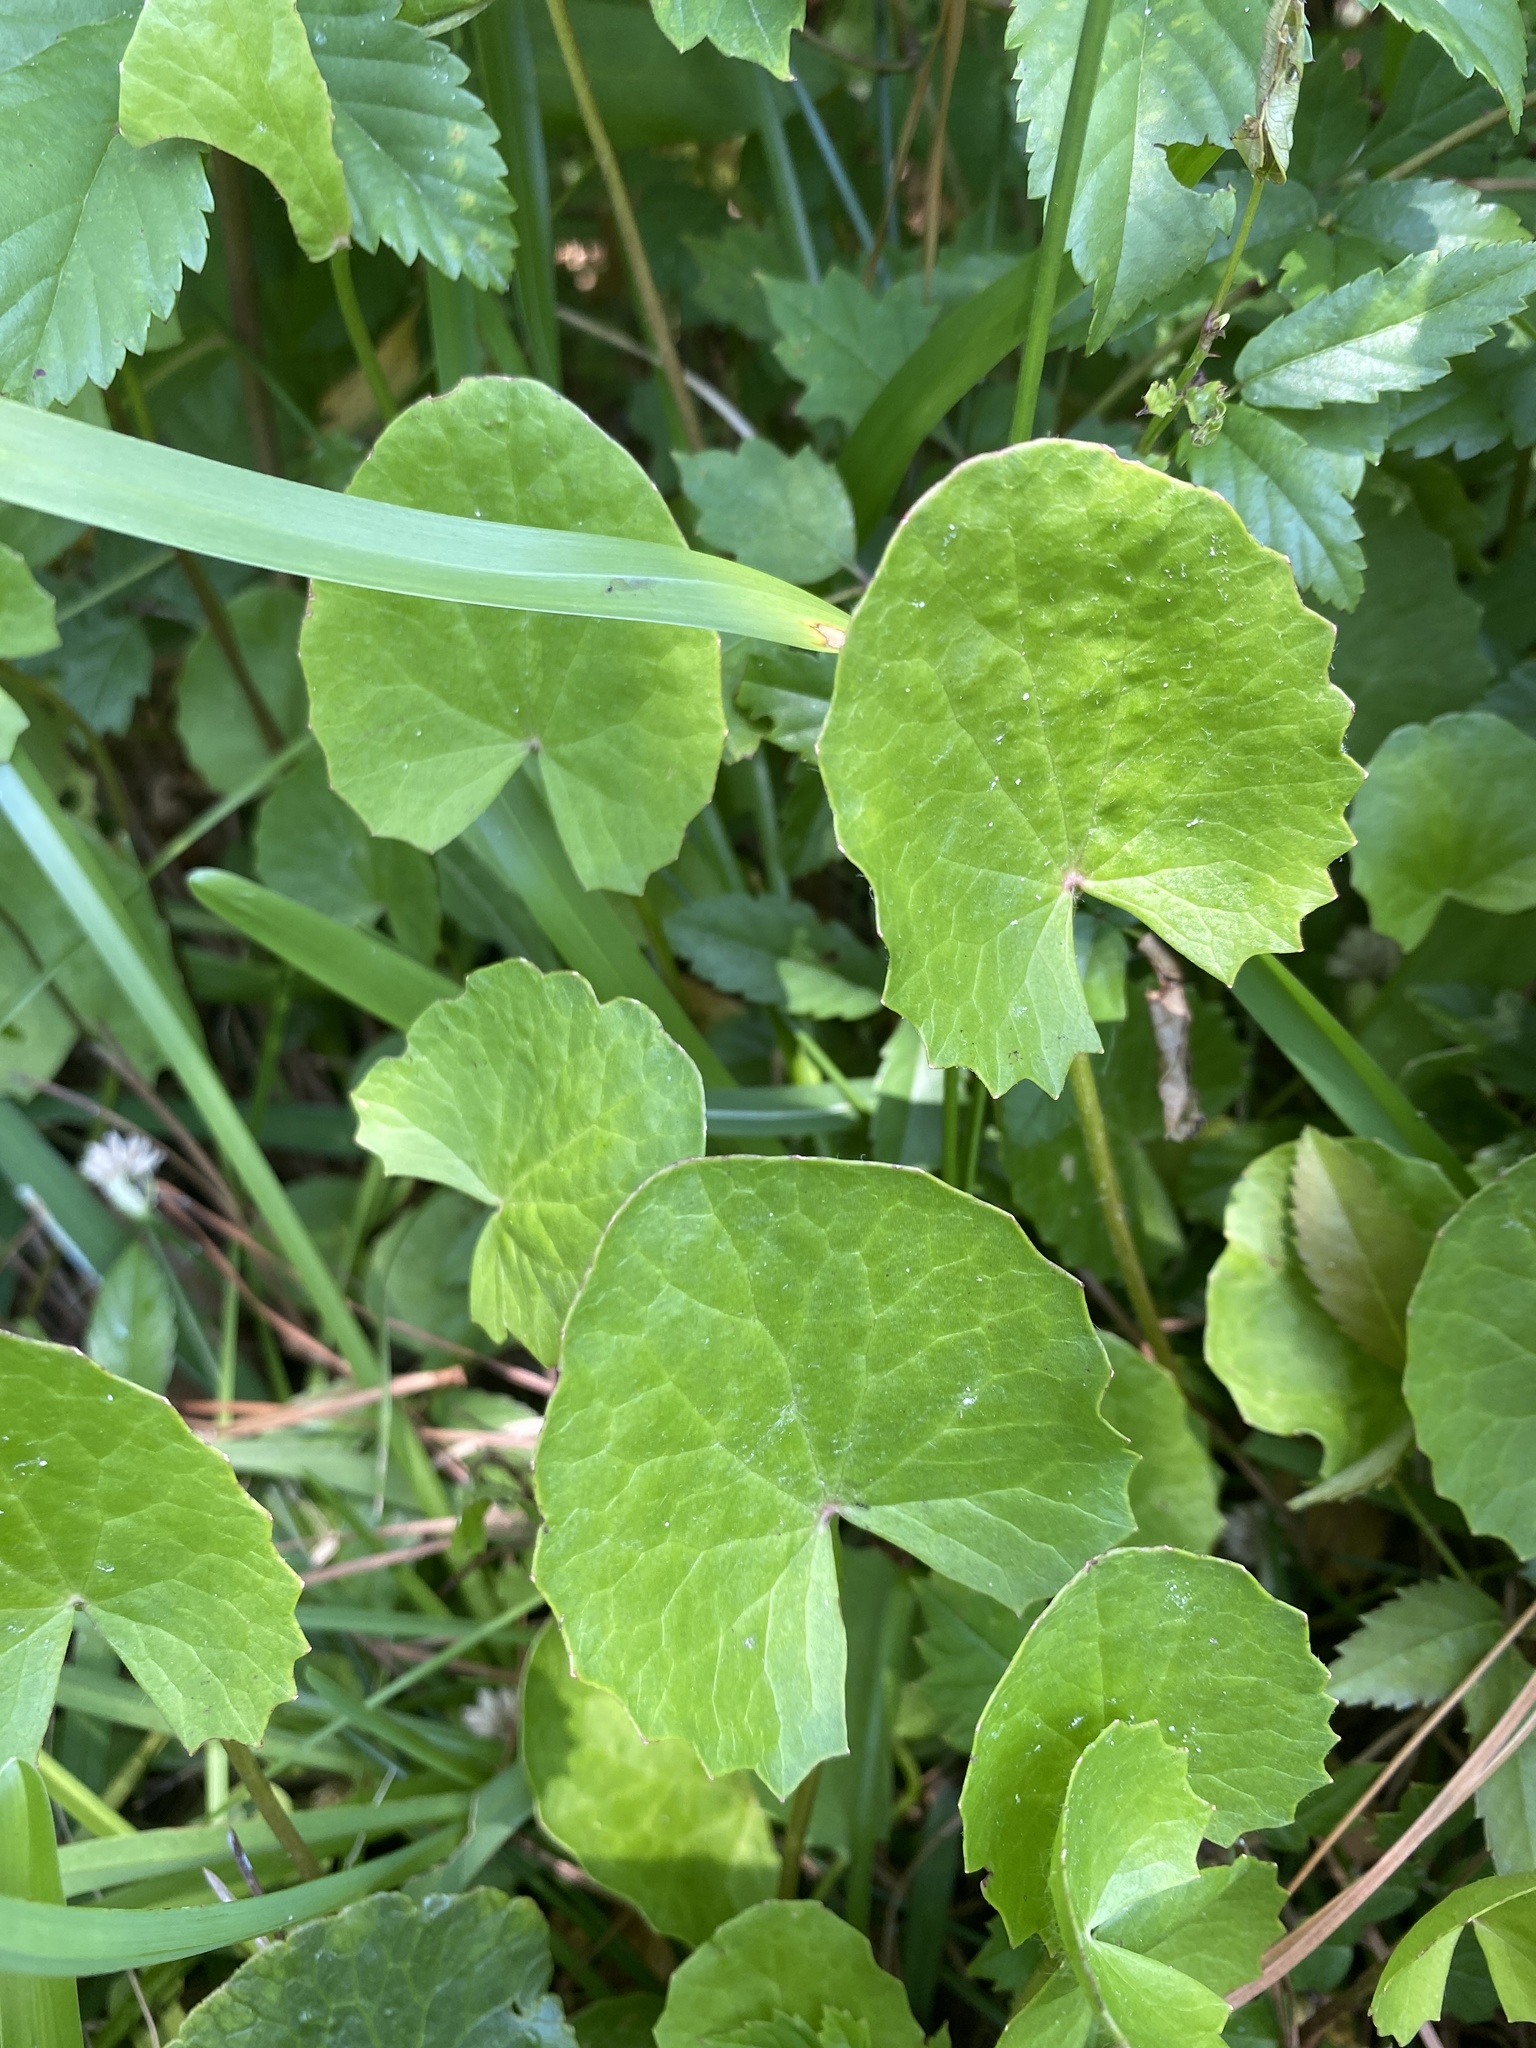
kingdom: Plantae
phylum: Tracheophyta
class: Magnoliopsida
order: Apiales
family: Apiaceae
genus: Centella
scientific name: Centella erecta
